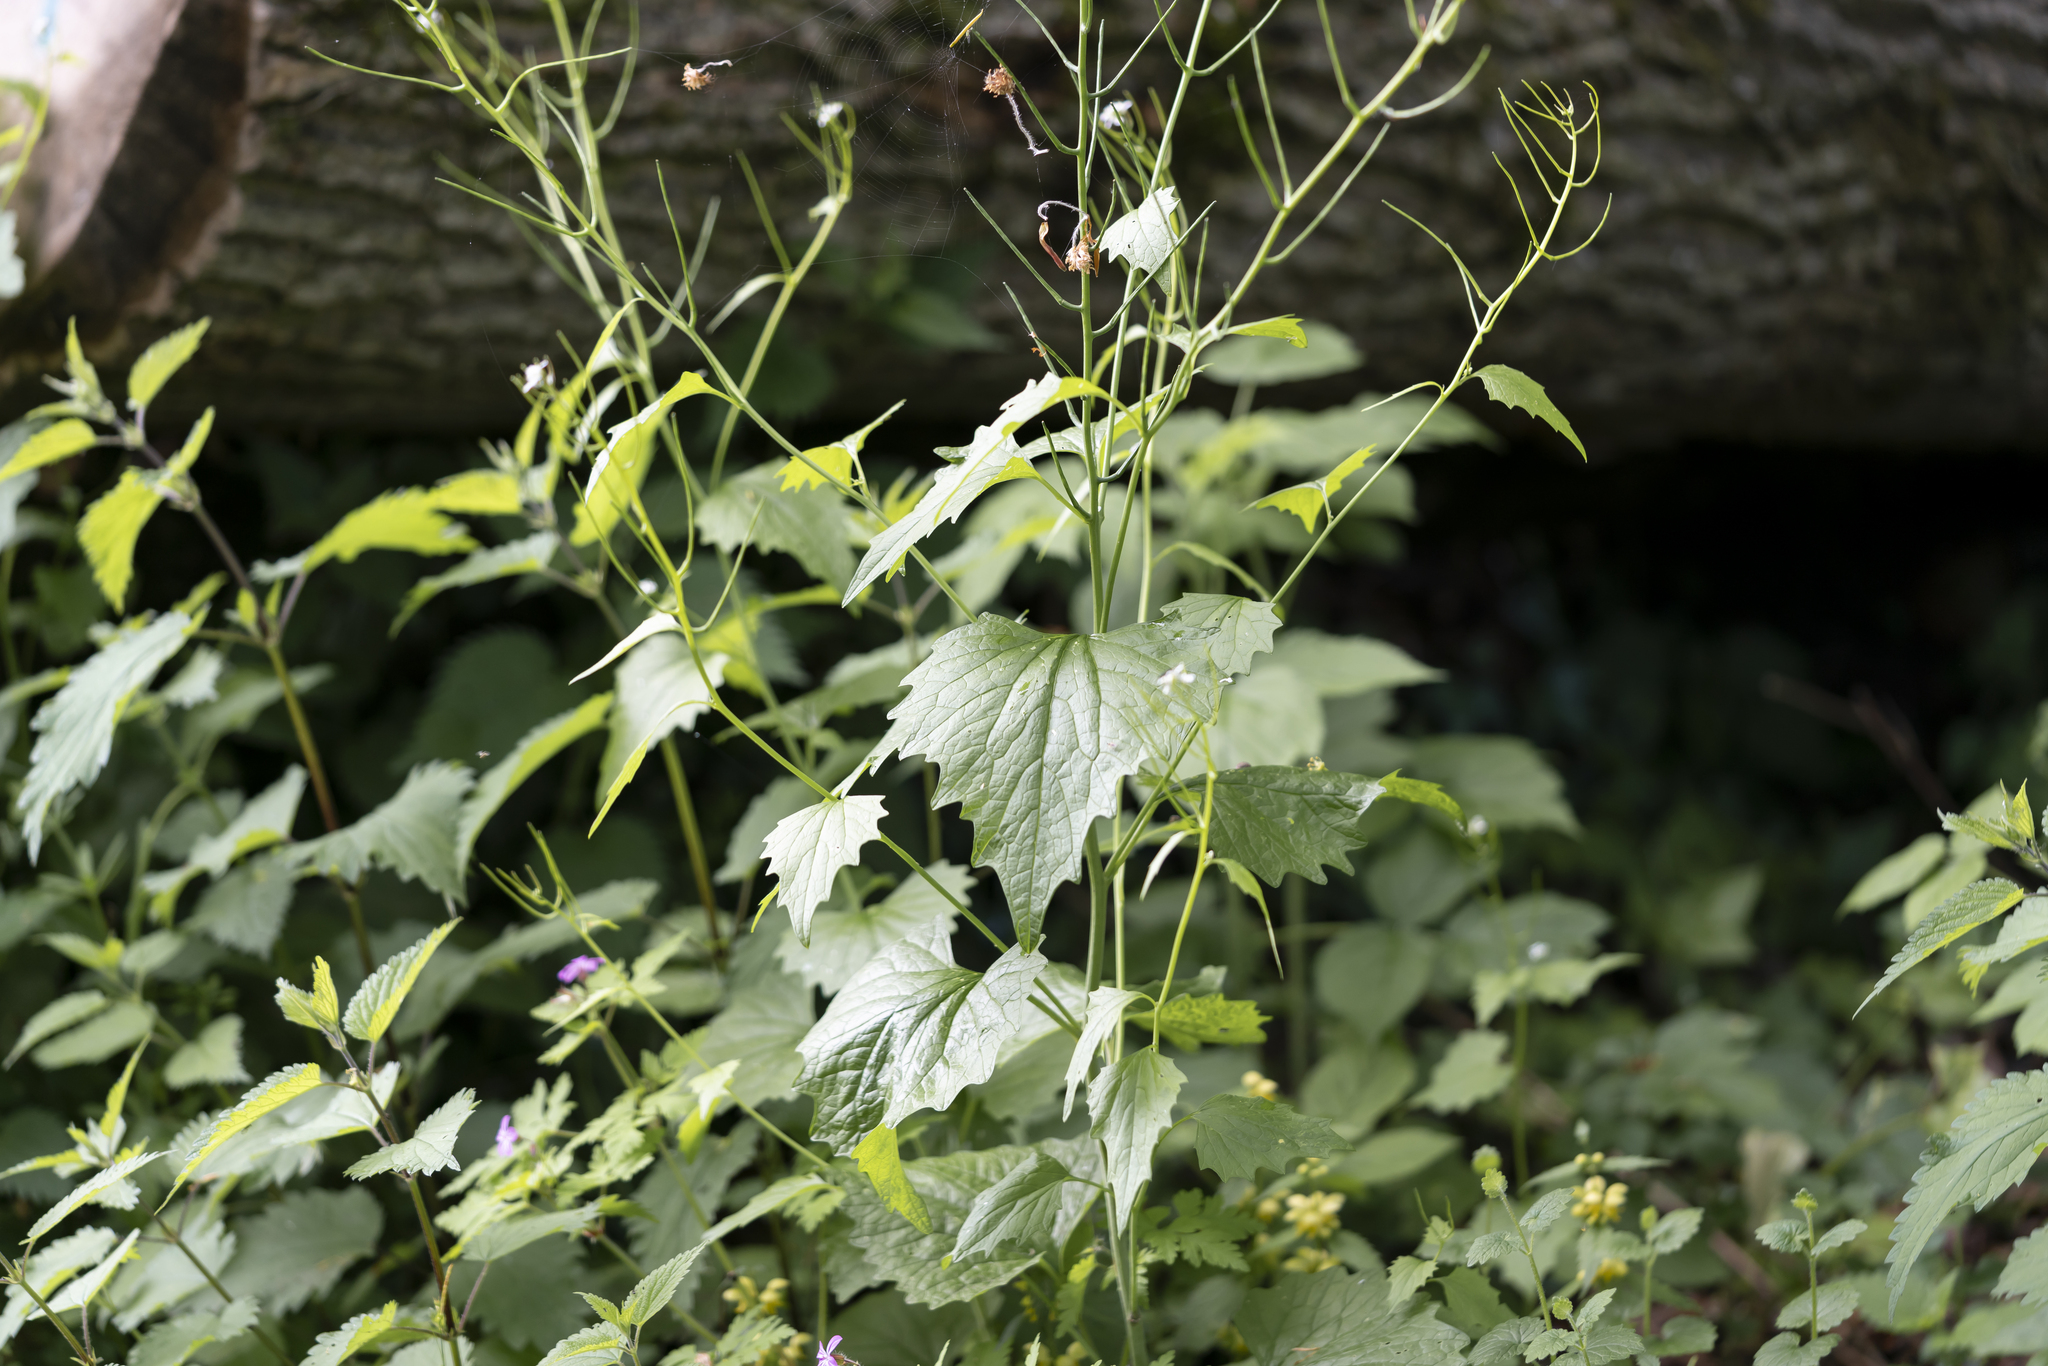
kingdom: Plantae
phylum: Tracheophyta
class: Magnoliopsida
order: Brassicales
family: Brassicaceae
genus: Alliaria
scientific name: Alliaria petiolata
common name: Garlic mustard
